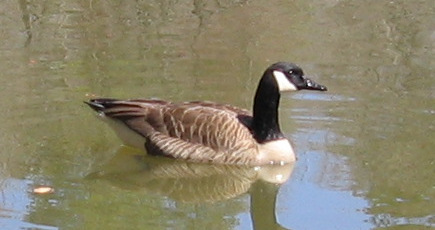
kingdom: Animalia
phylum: Chordata
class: Aves
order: Anseriformes
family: Anatidae
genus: Branta
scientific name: Branta canadensis
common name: Canada goose
